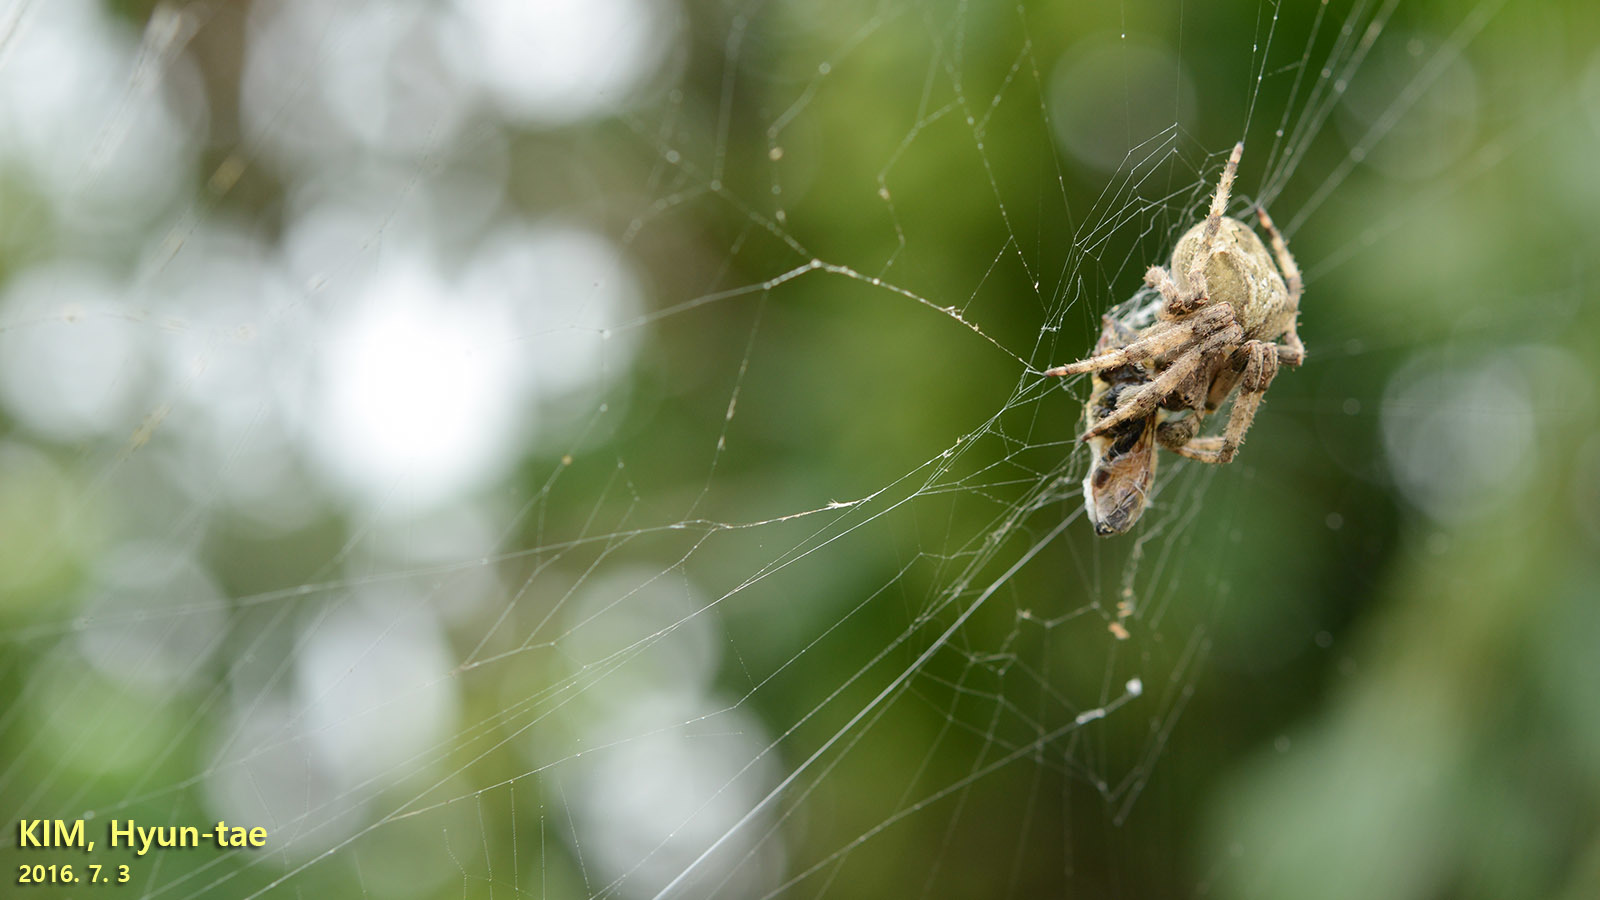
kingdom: Animalia
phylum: Arthropoda
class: Arachnida
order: Araneae
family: Araneidae
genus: Araneus
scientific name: Araneus ventricosus
